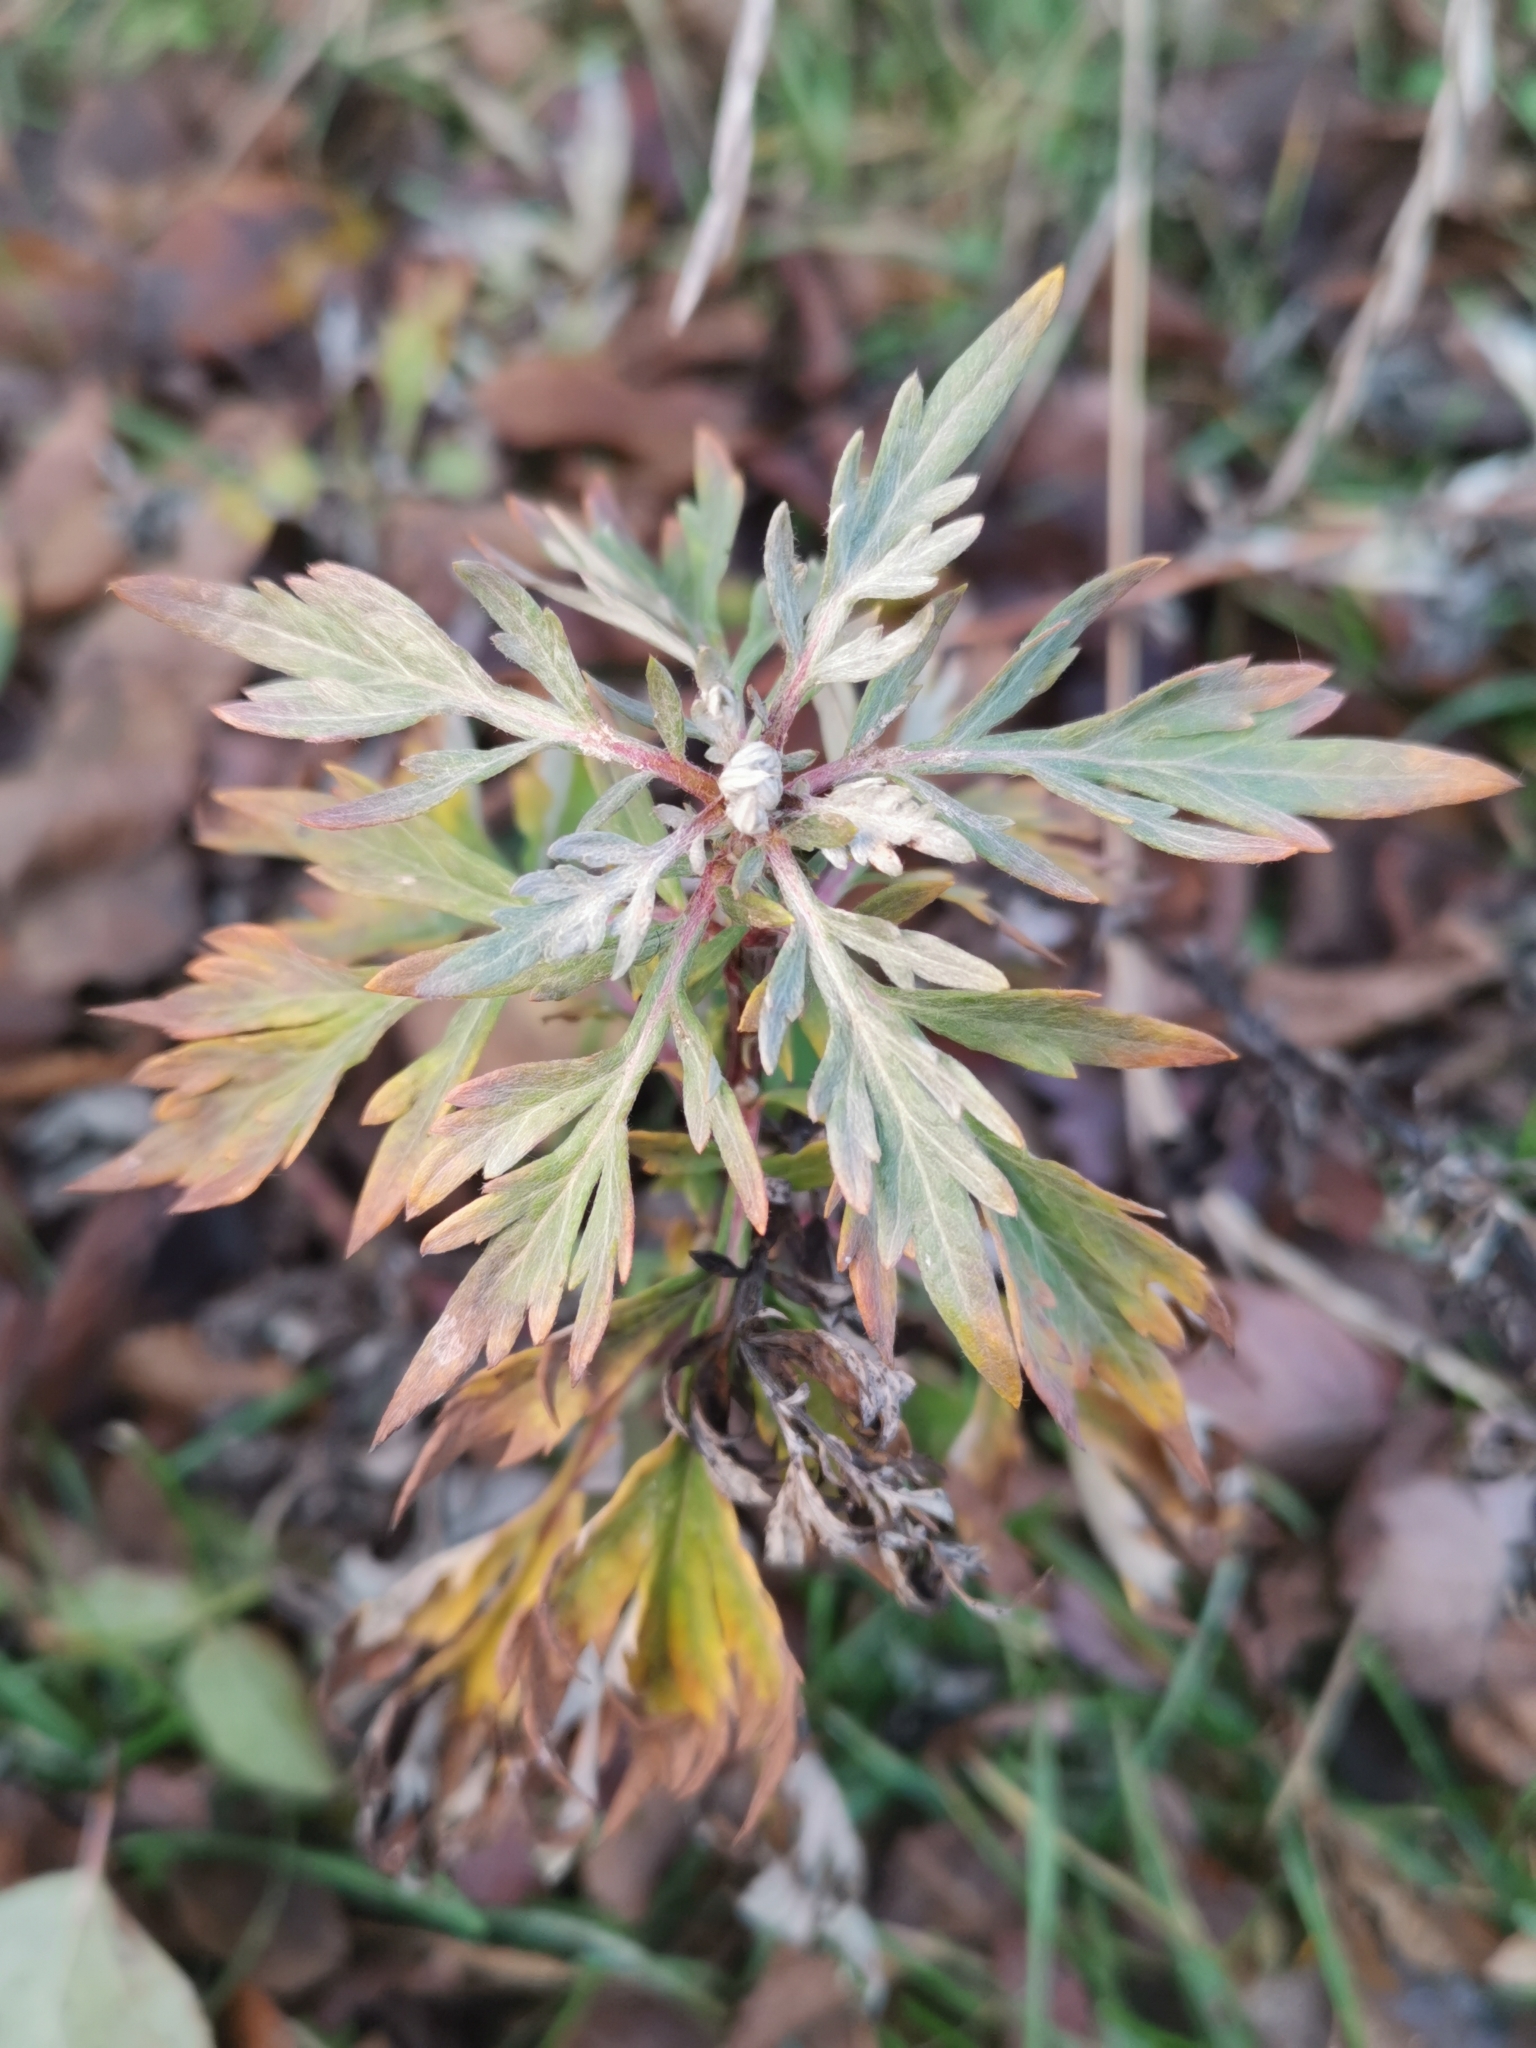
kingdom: Plantae
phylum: Tracheophyta
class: Magnoliopsida
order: Asterales
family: Asteraceae
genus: Artemisia
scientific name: Artemisia vulgaris
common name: Mugwort
